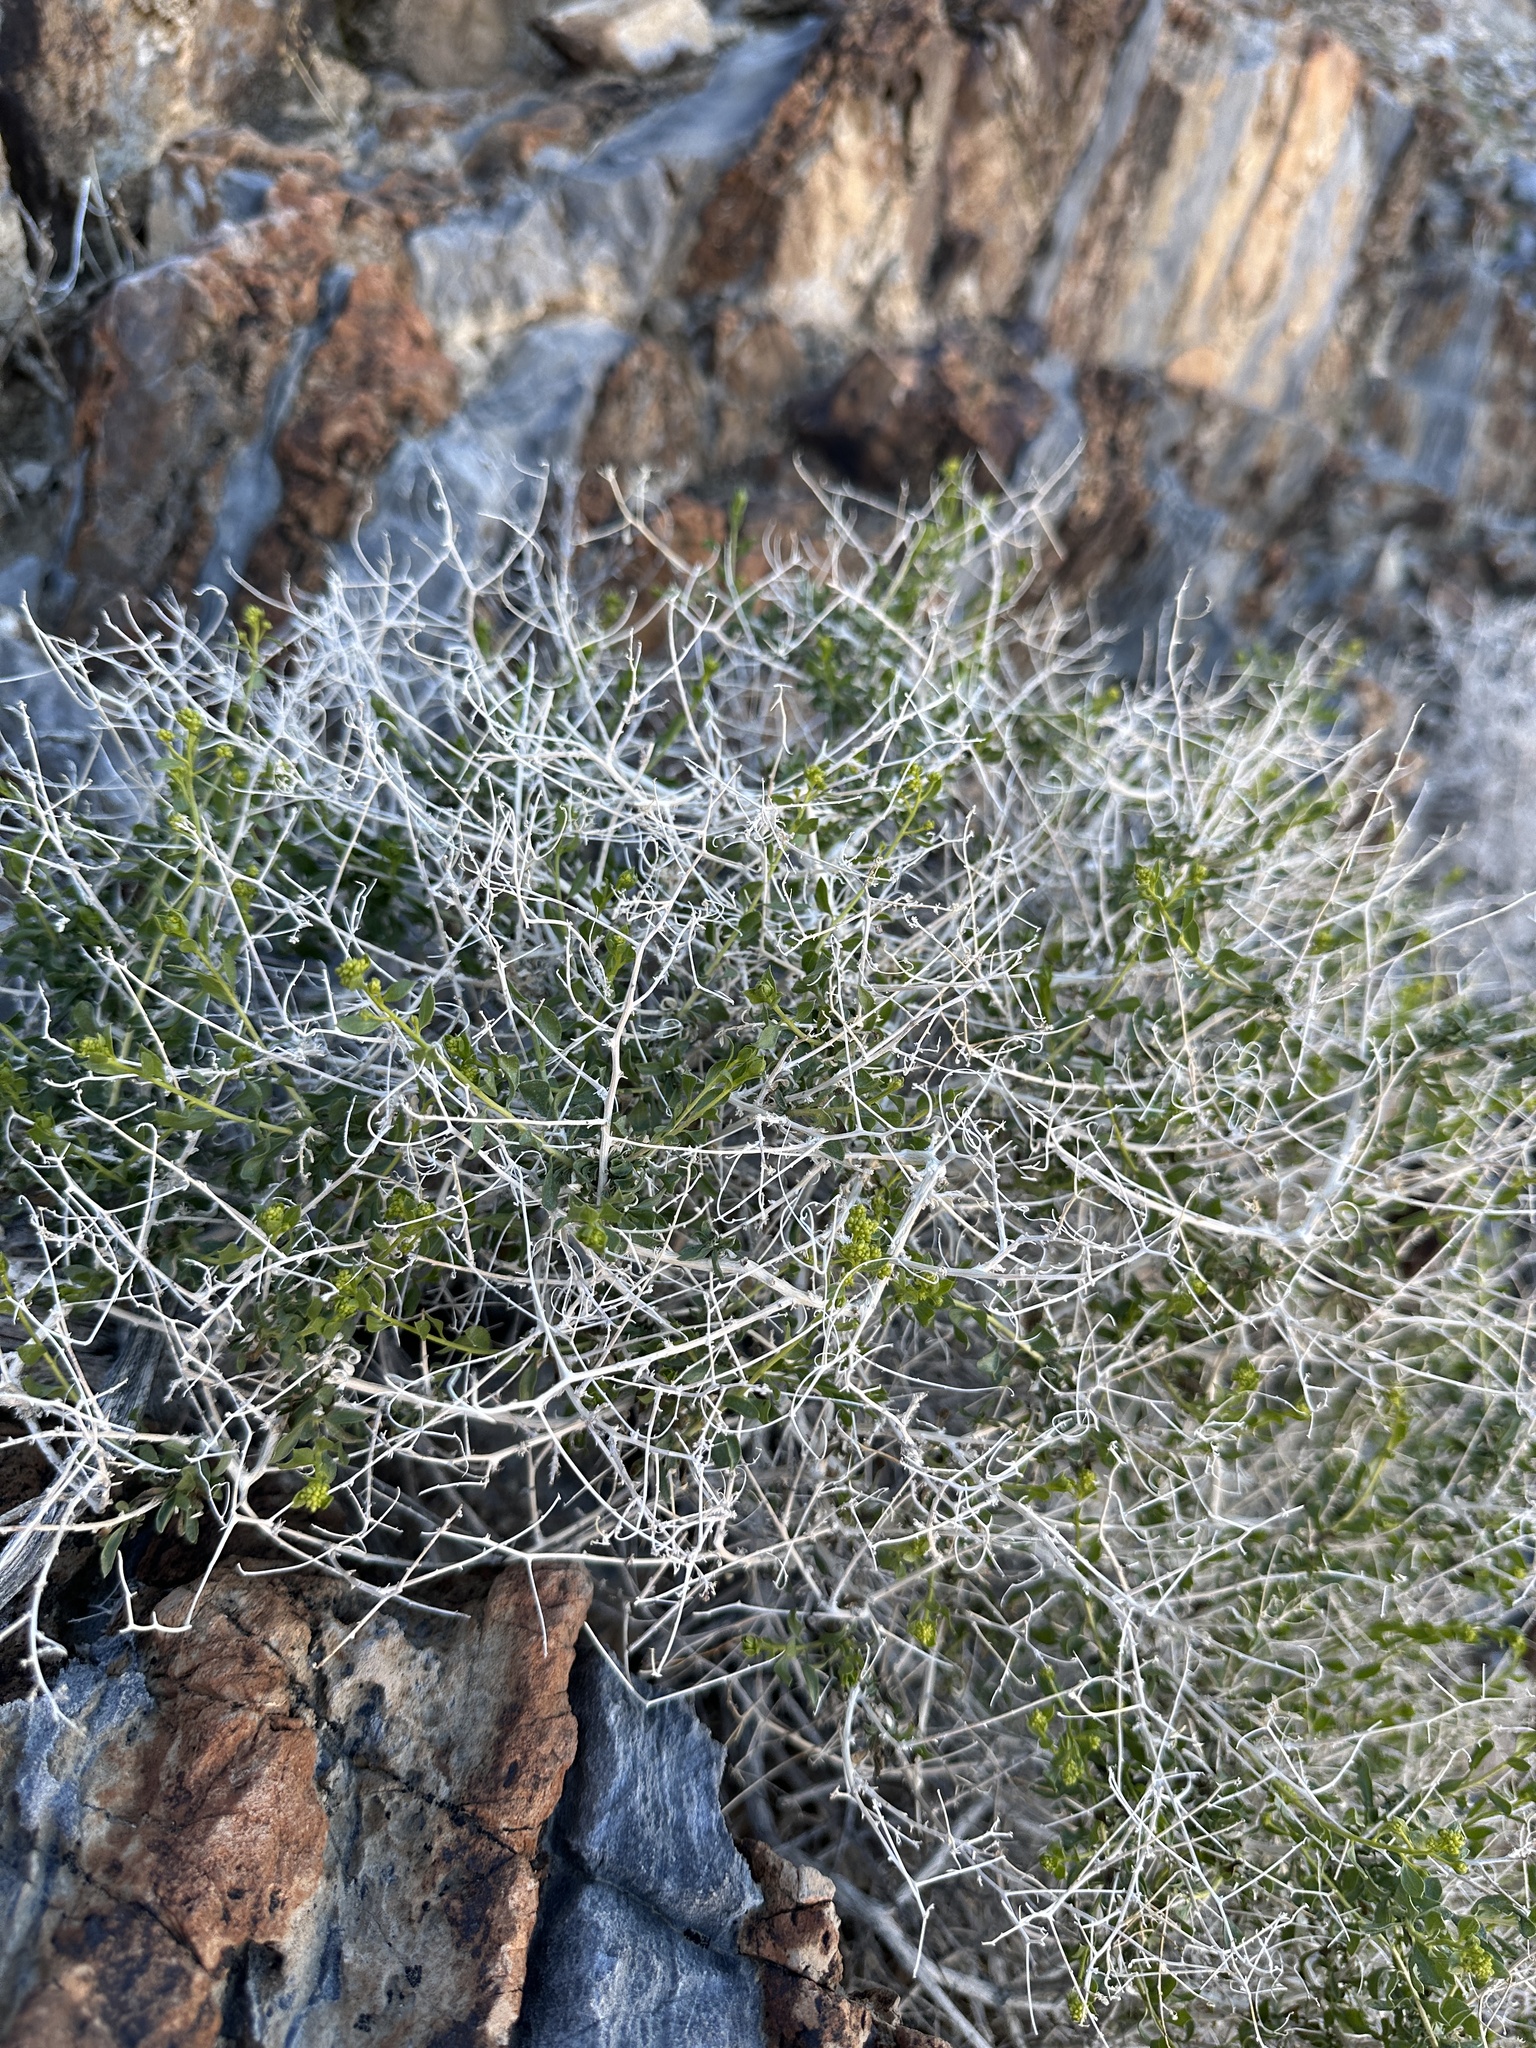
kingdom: Plantae
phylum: Tracheophyta
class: Magnoliopsida
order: Asterales
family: Asteraceae
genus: Amphipappus
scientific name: Amphipappus fremontii
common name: Fremont's chaffbush
